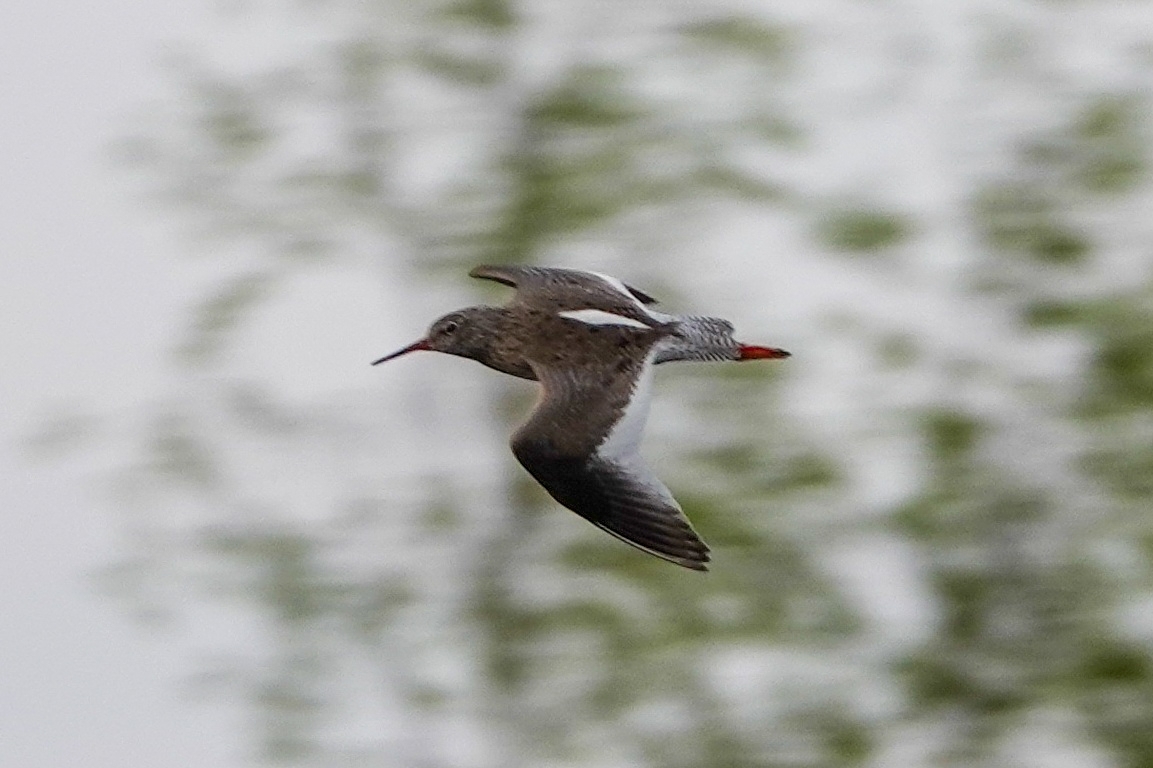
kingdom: Animalia
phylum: Chordata
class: Aves
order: Charadriiformes
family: Scolopacidae
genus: Tringa
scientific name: Tringa totanus
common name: Common redshank
